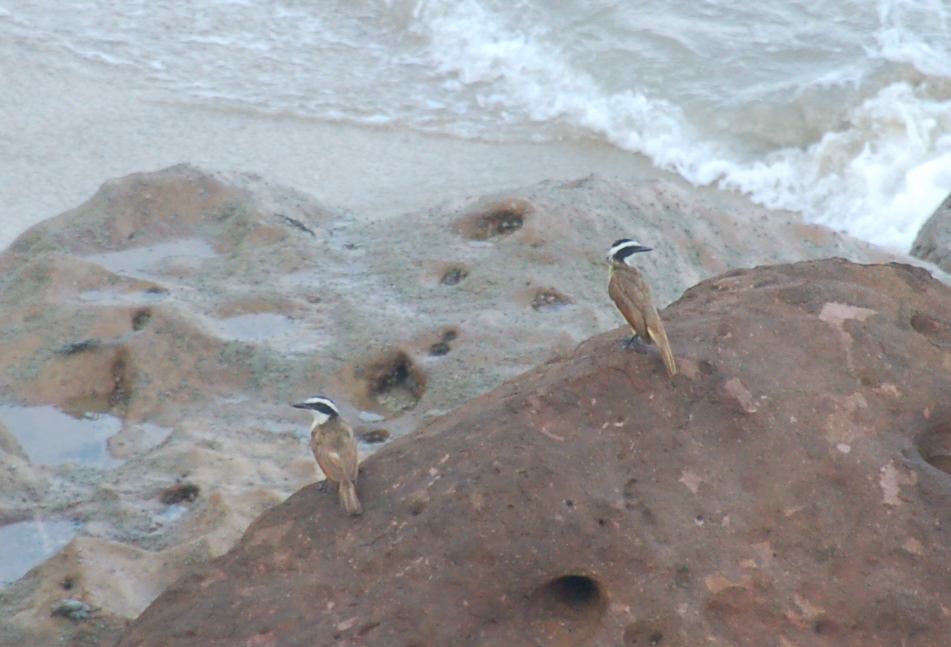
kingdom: Animalia
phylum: Chordata
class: Aves
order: Passeriformes
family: Tyrannidae
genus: Pitangus
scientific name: Pitangus sulphuratus
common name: Great kiskadee
